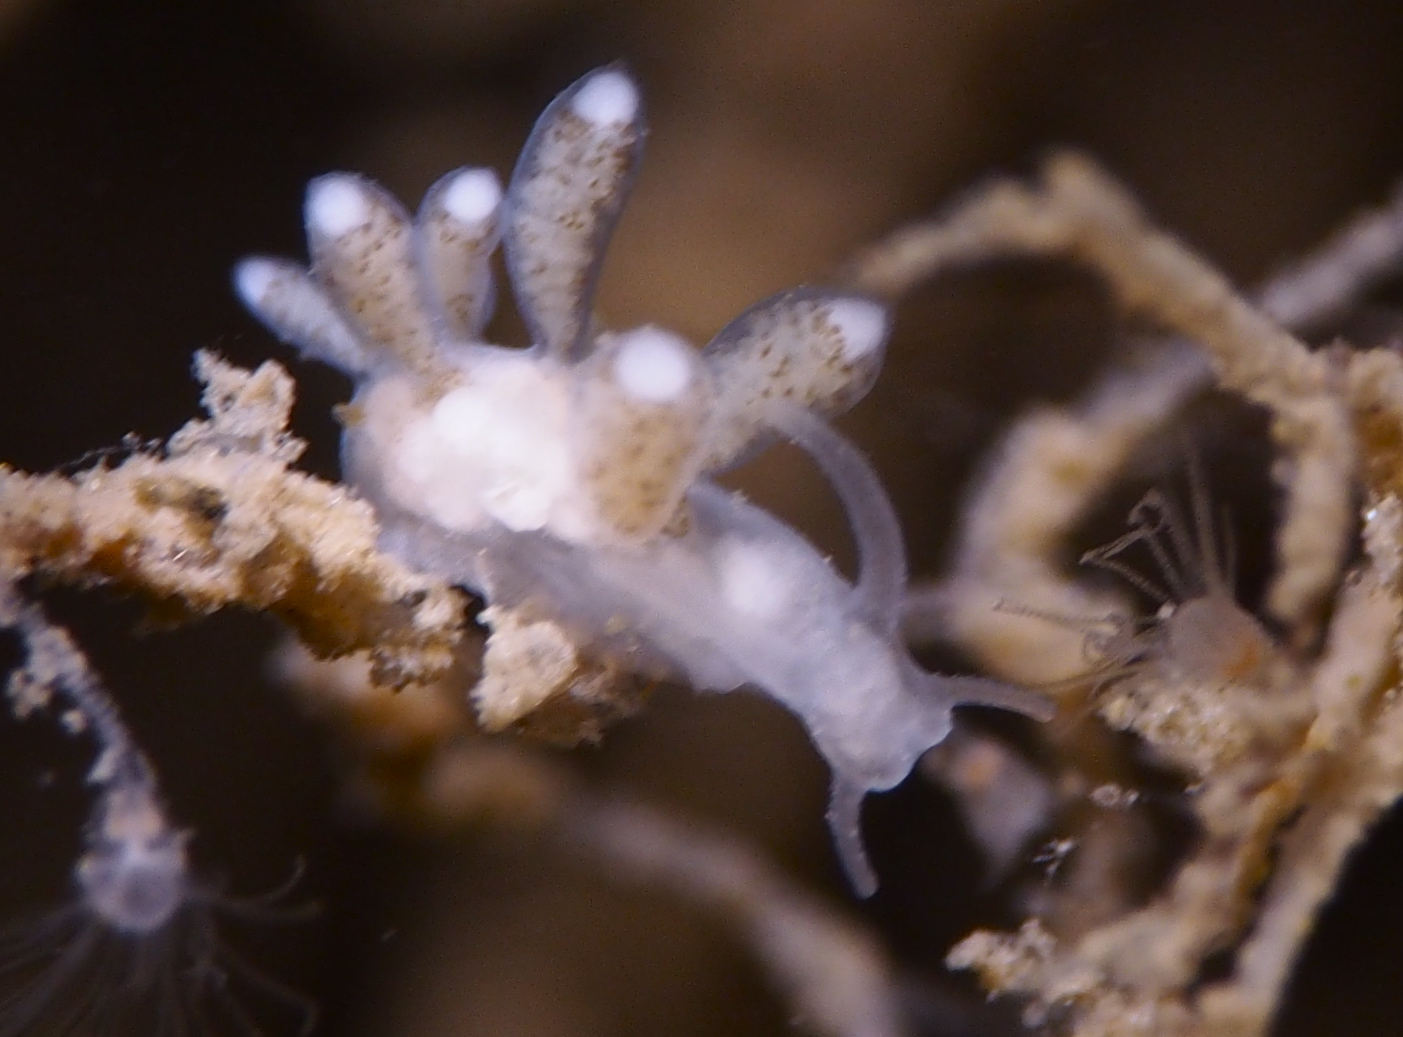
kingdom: Animalia
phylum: Mollusca
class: Gastropoda
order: Nudibranchia
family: Tergipedidae
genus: Tergipes
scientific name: Tergipes tergipes
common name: Johnston's balloon eolis
